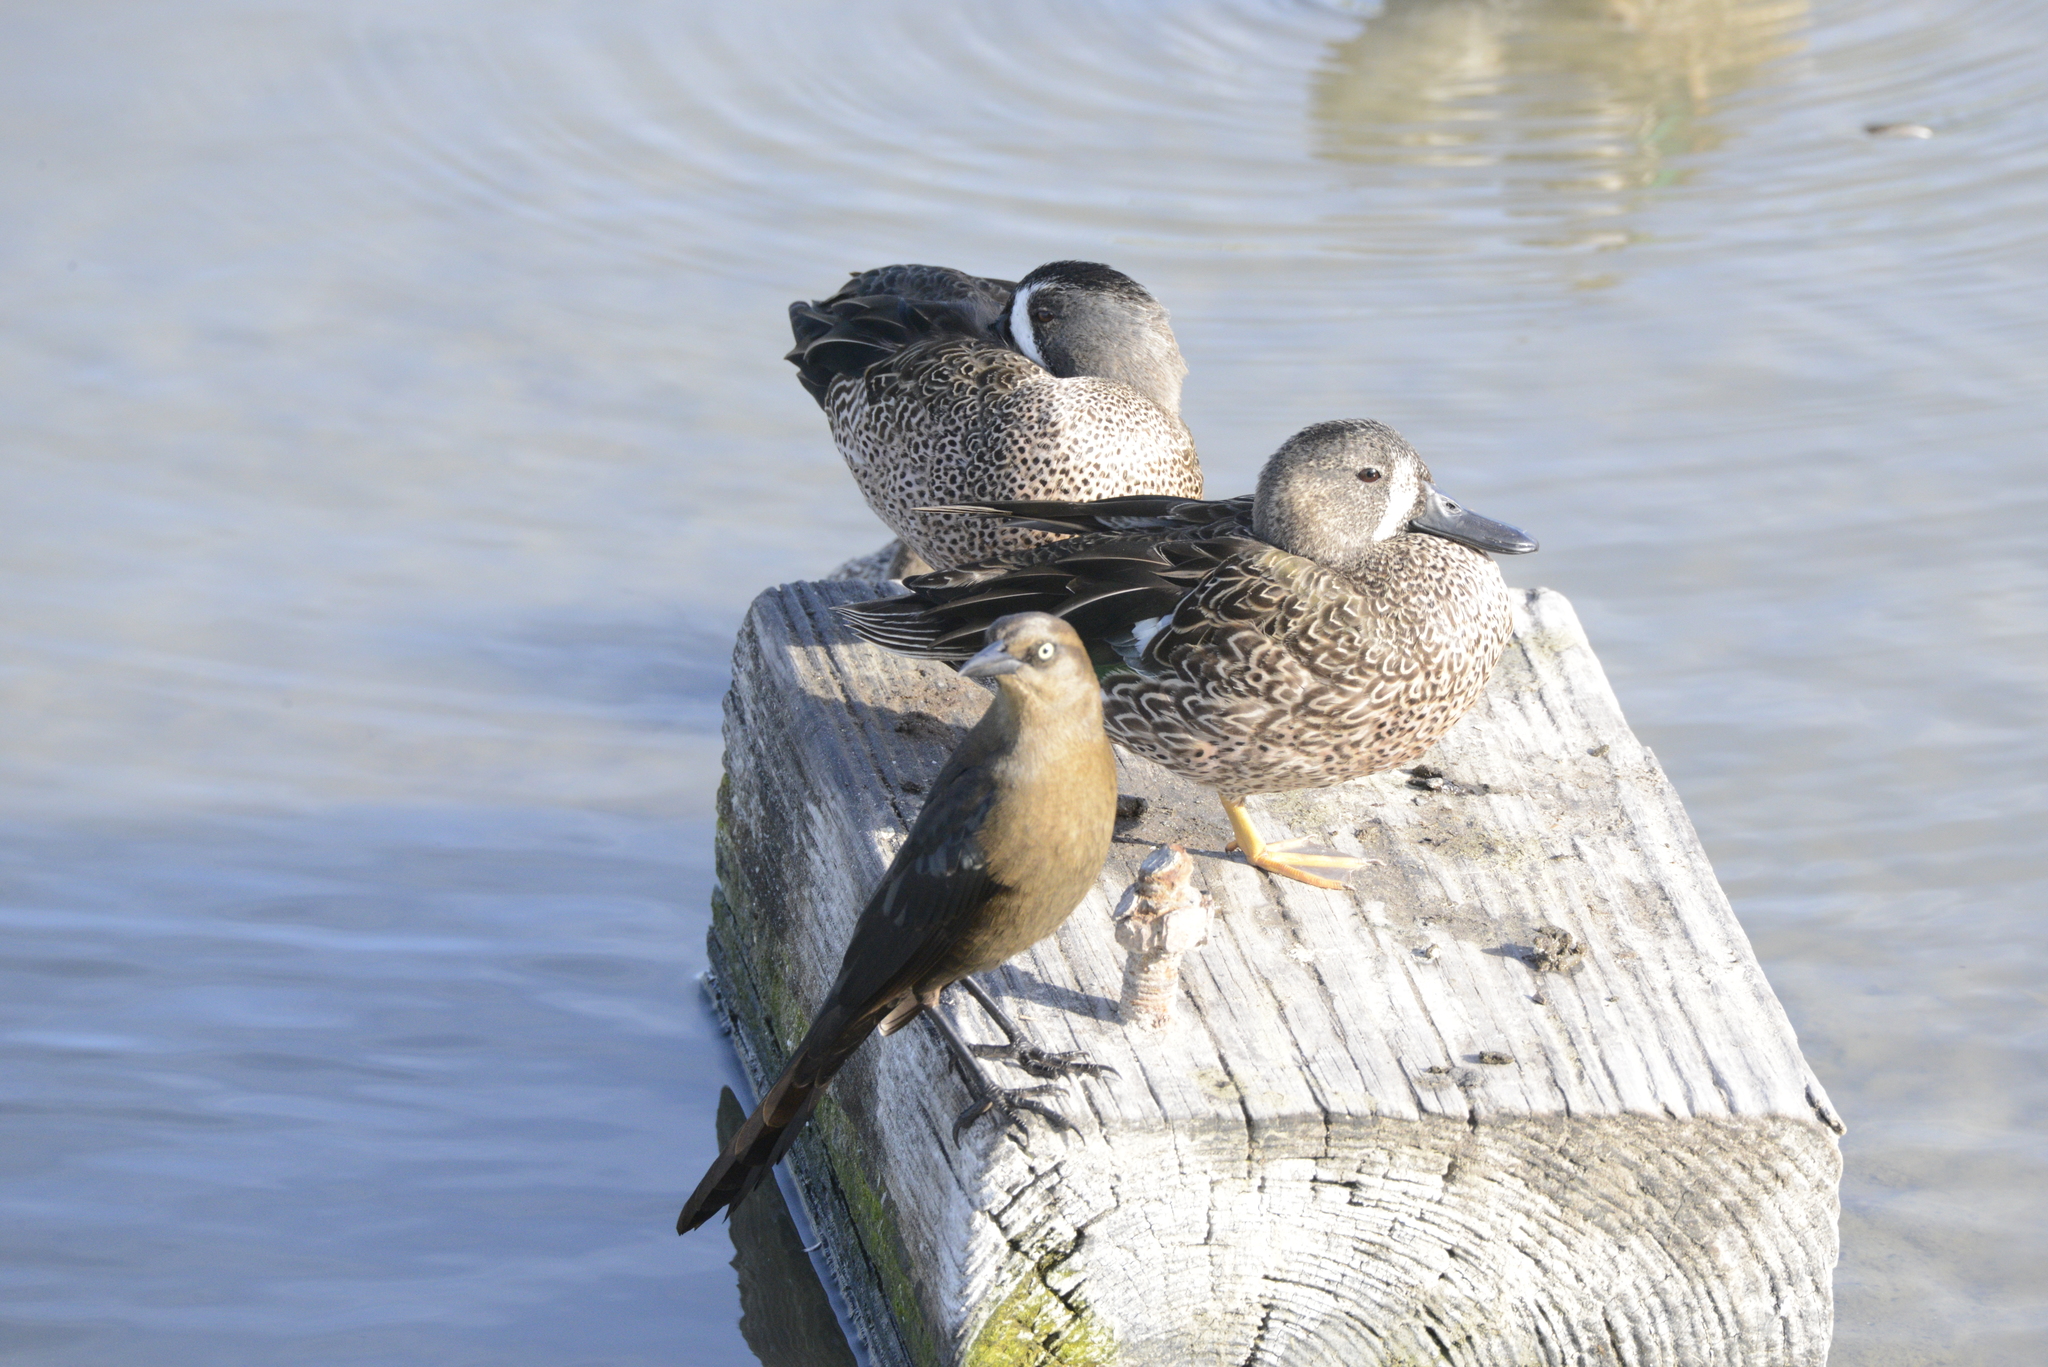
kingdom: Animalia
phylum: Chordata
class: Aves
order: Passeriformes
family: Icteridae
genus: Quiscalus
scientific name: Quiscalus mexicanus
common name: Great-tailed grackle
